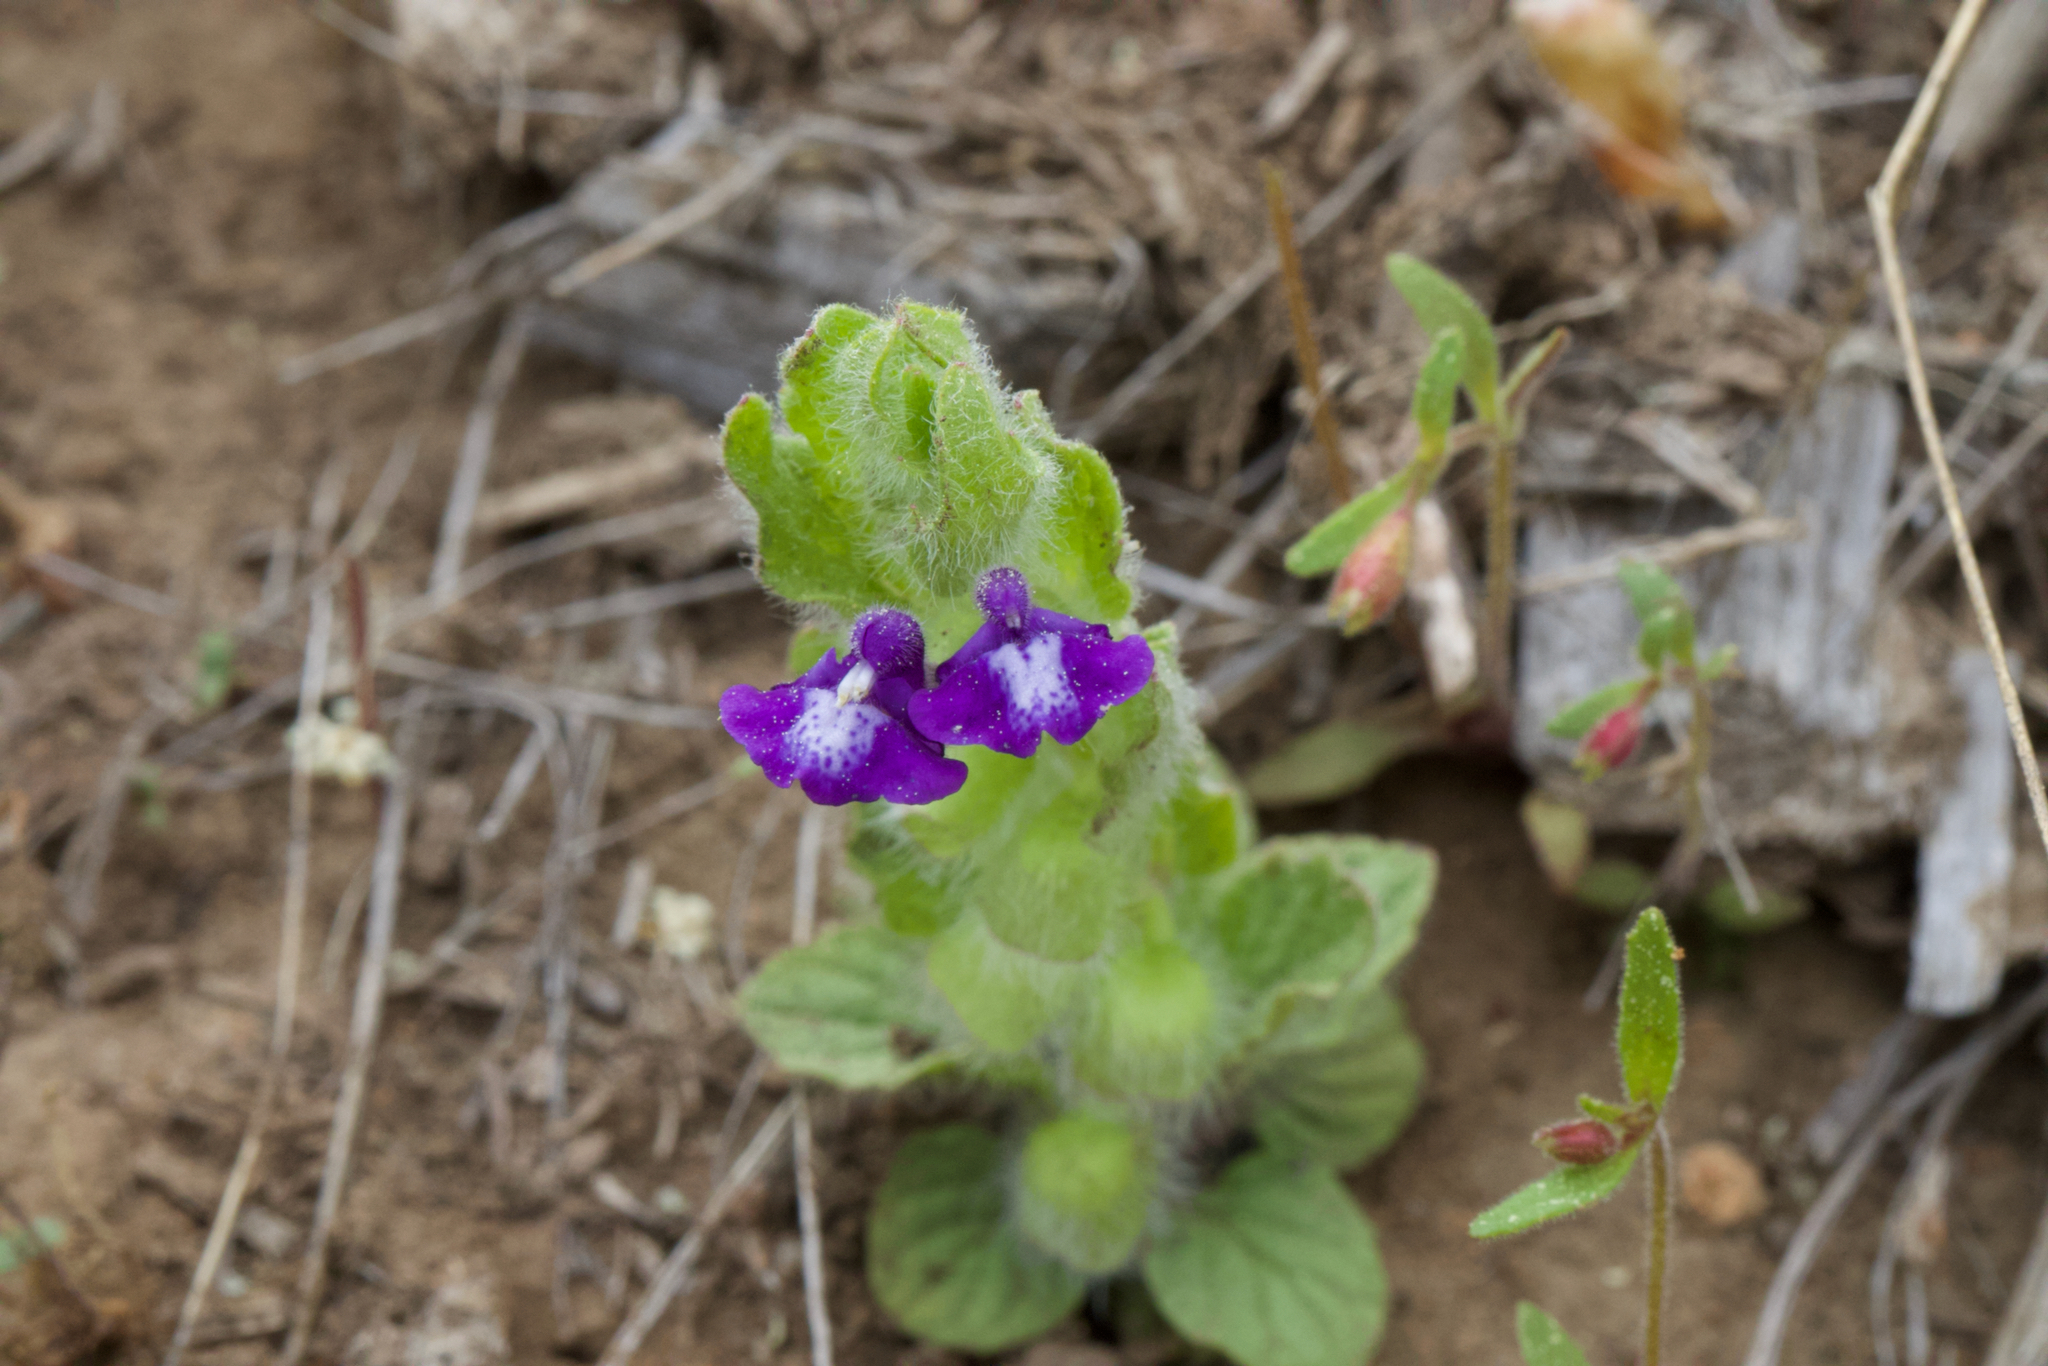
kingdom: Plantae
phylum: Tracheophyta
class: Magnoliopsida
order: Lamiales
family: Lamiaceae
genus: Scutellaria
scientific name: Scutellaria tuberosa
